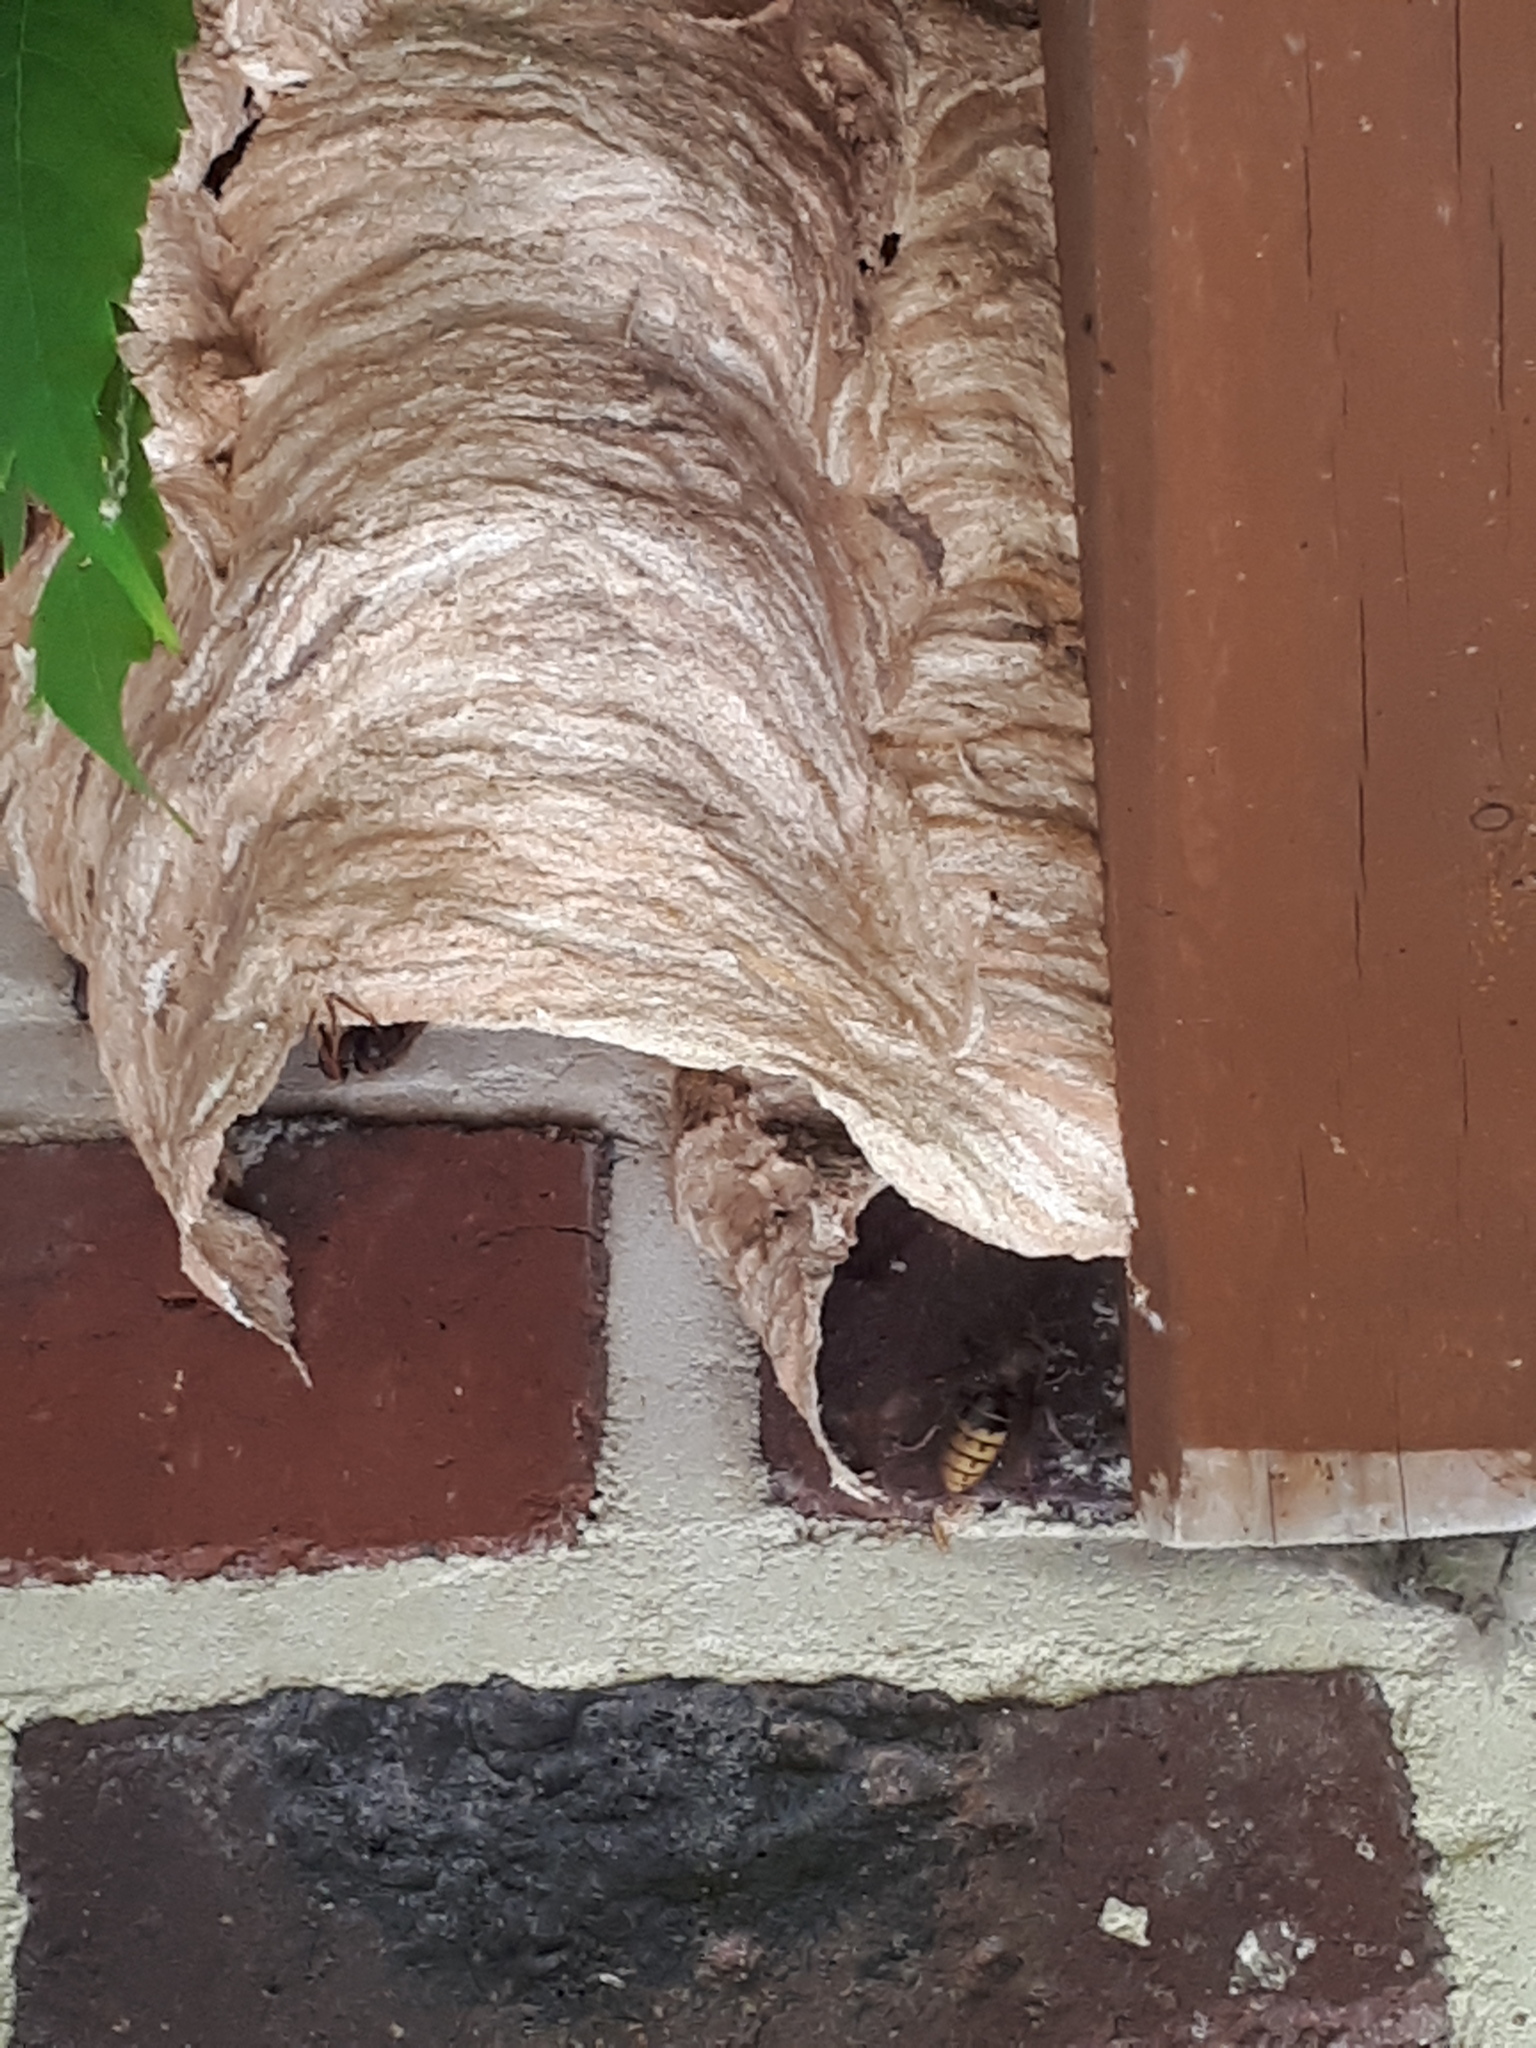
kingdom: Animalia
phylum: Arthropoda
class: Insecta
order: Hymenoptera
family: Vespidae
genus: Vespa
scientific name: Vespa crabro
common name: Hornet
